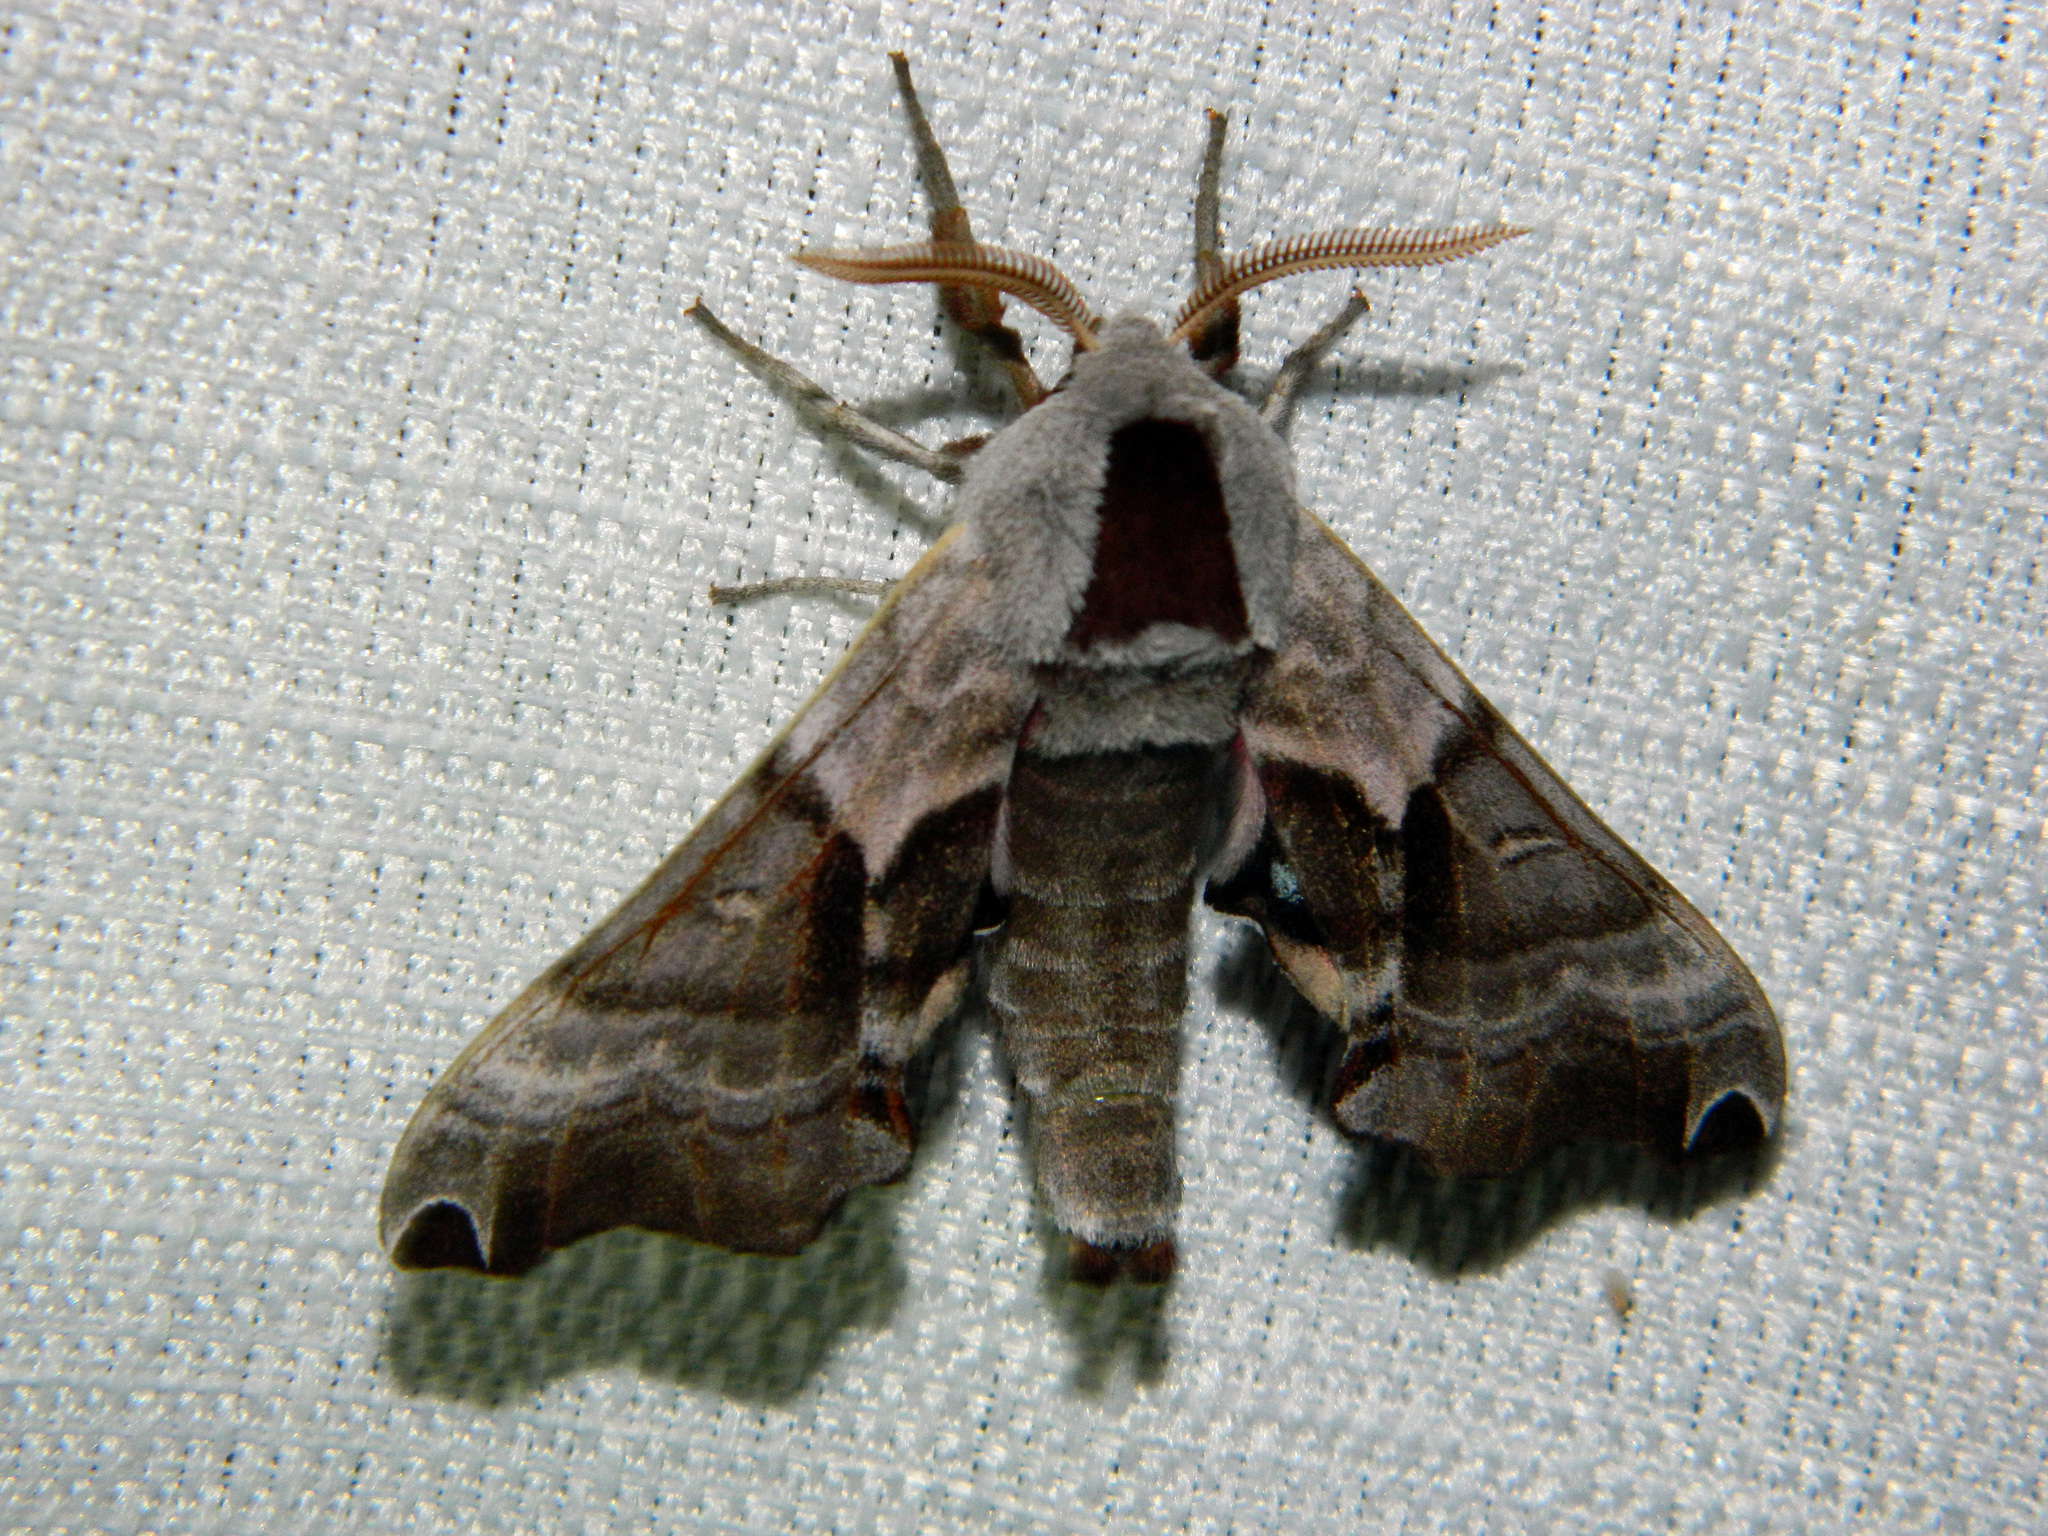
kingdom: Animalia
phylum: Arthropoda
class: Insecta
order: Lepidoptera
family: Sphingidae
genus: Smerinthus
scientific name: Smerinthus jamaicensis
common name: Twin spotted sphinx
